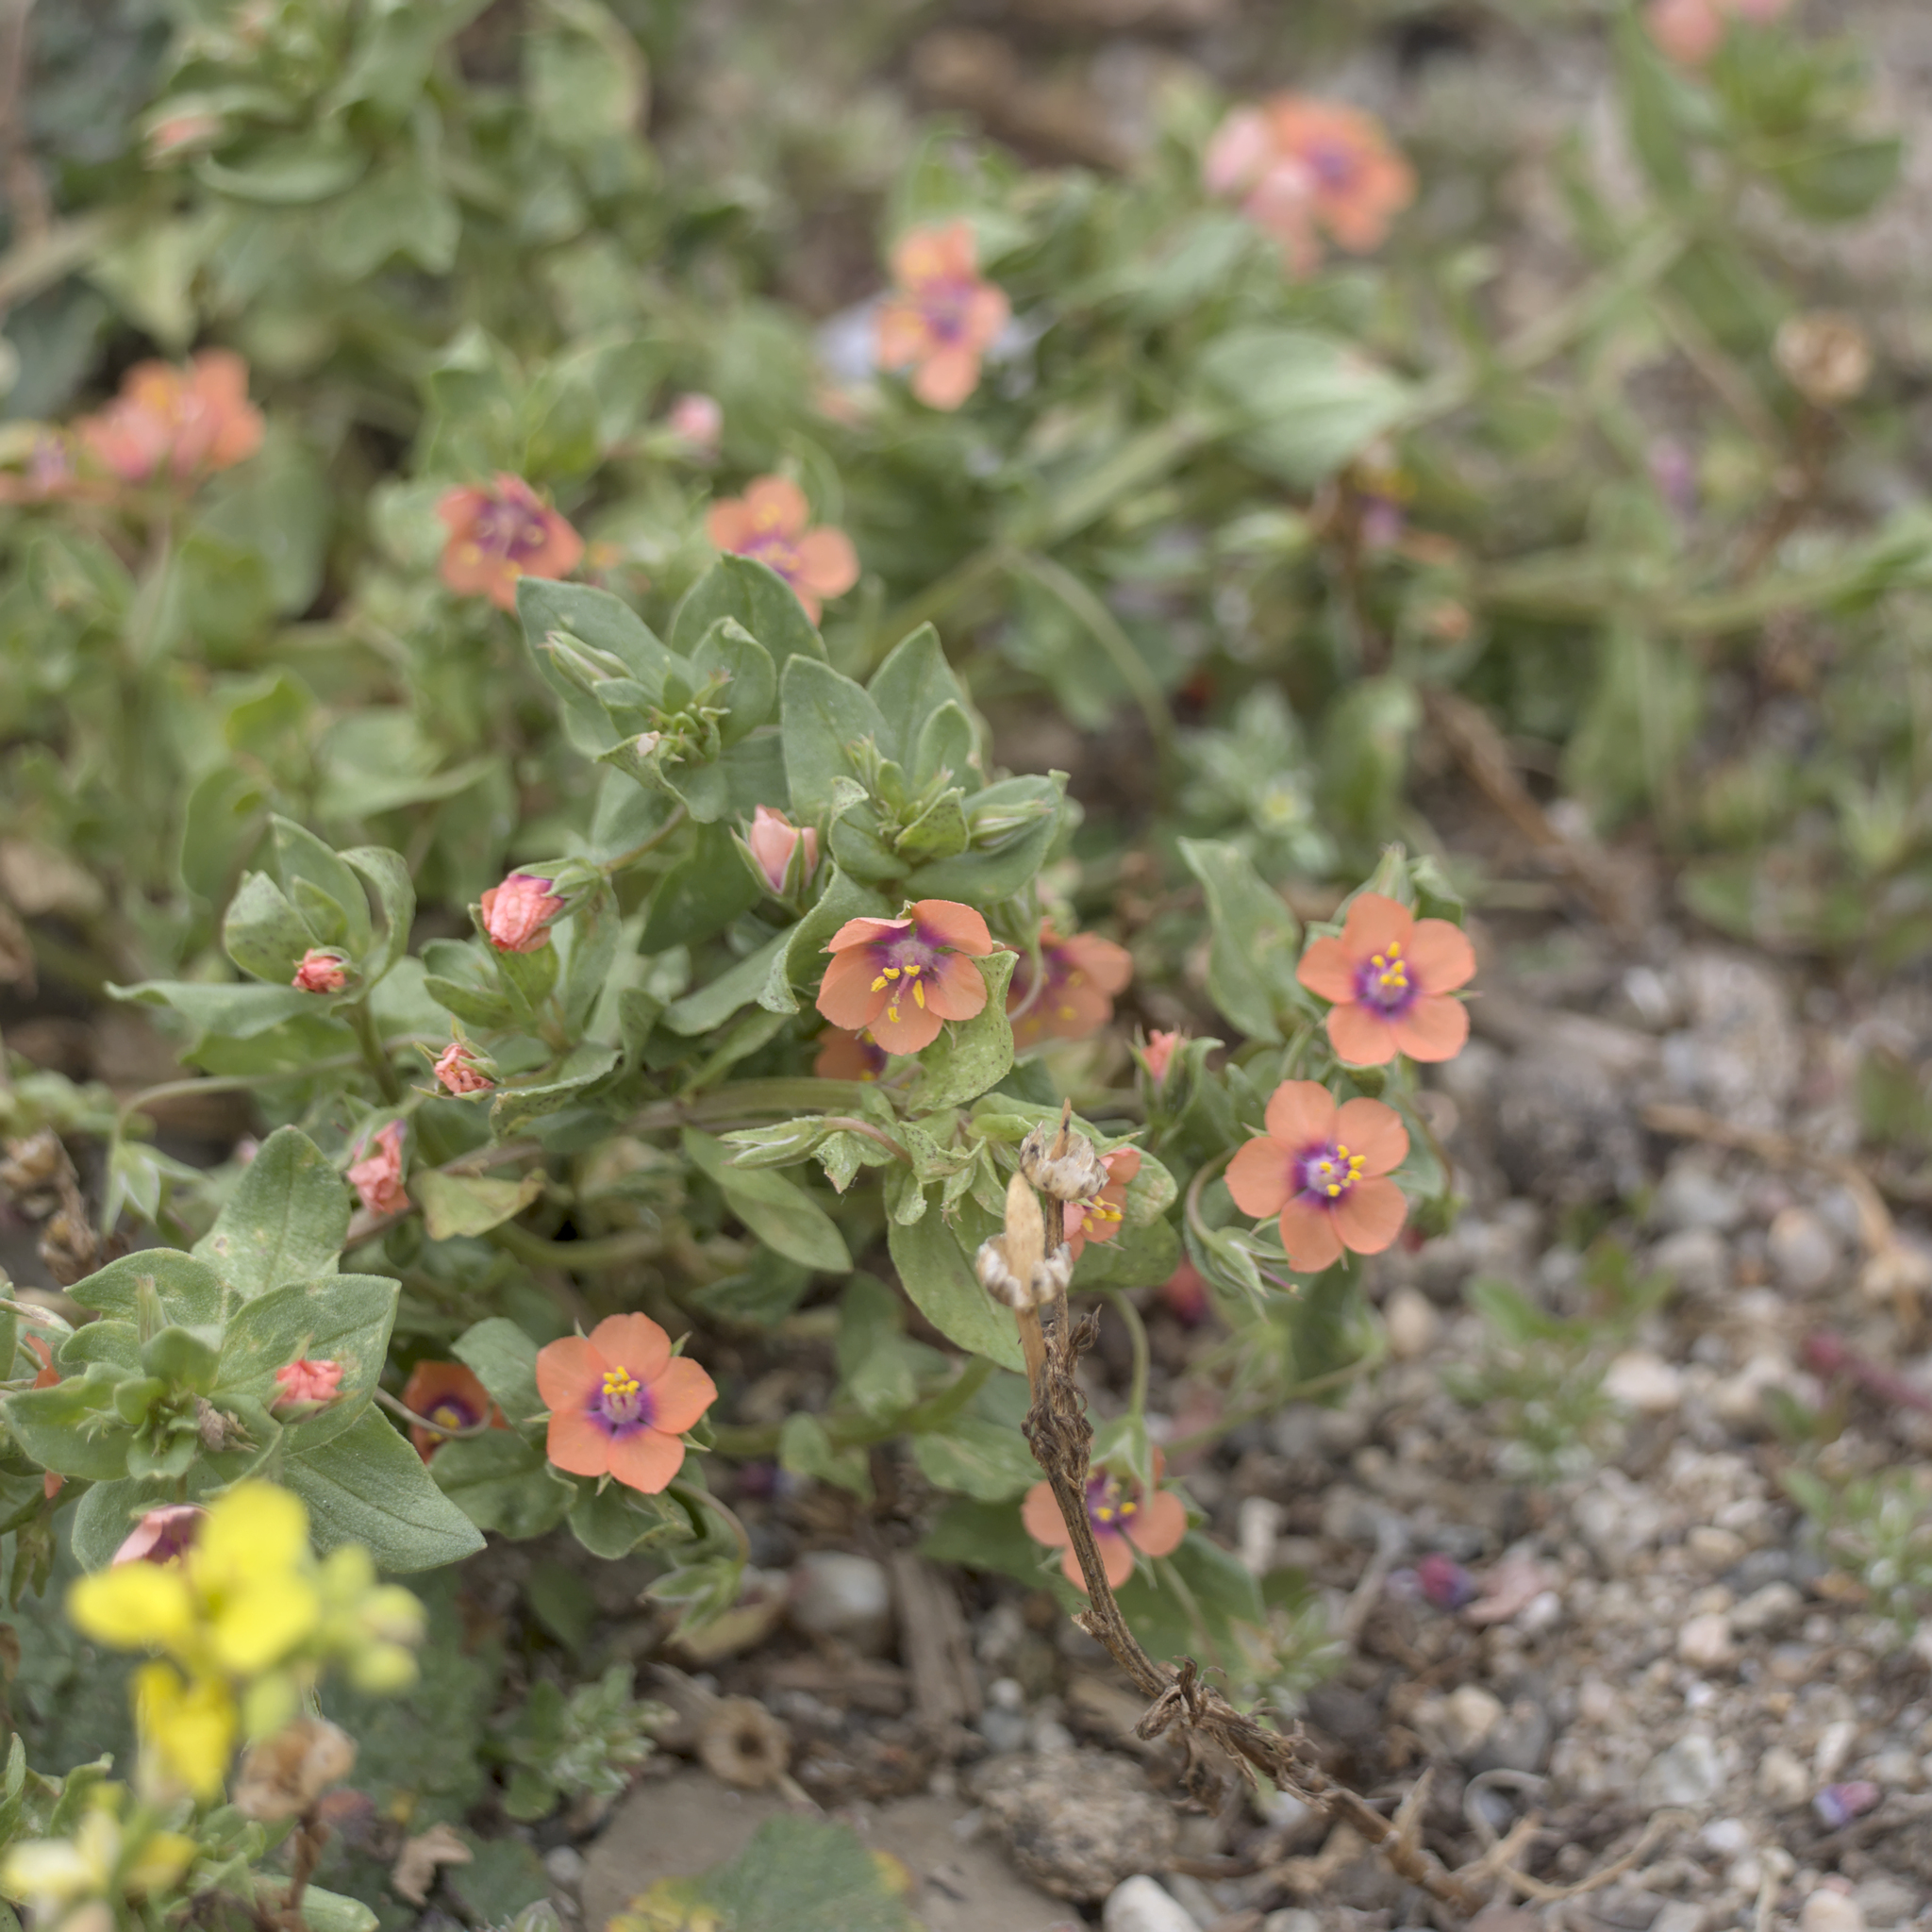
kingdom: Plantae
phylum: Tracheophyta
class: Magnoliopsida
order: Ericales
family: Primulaceae
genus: Lysimachia
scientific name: Lysimachia arvensis
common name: Scarlet pimpernel
